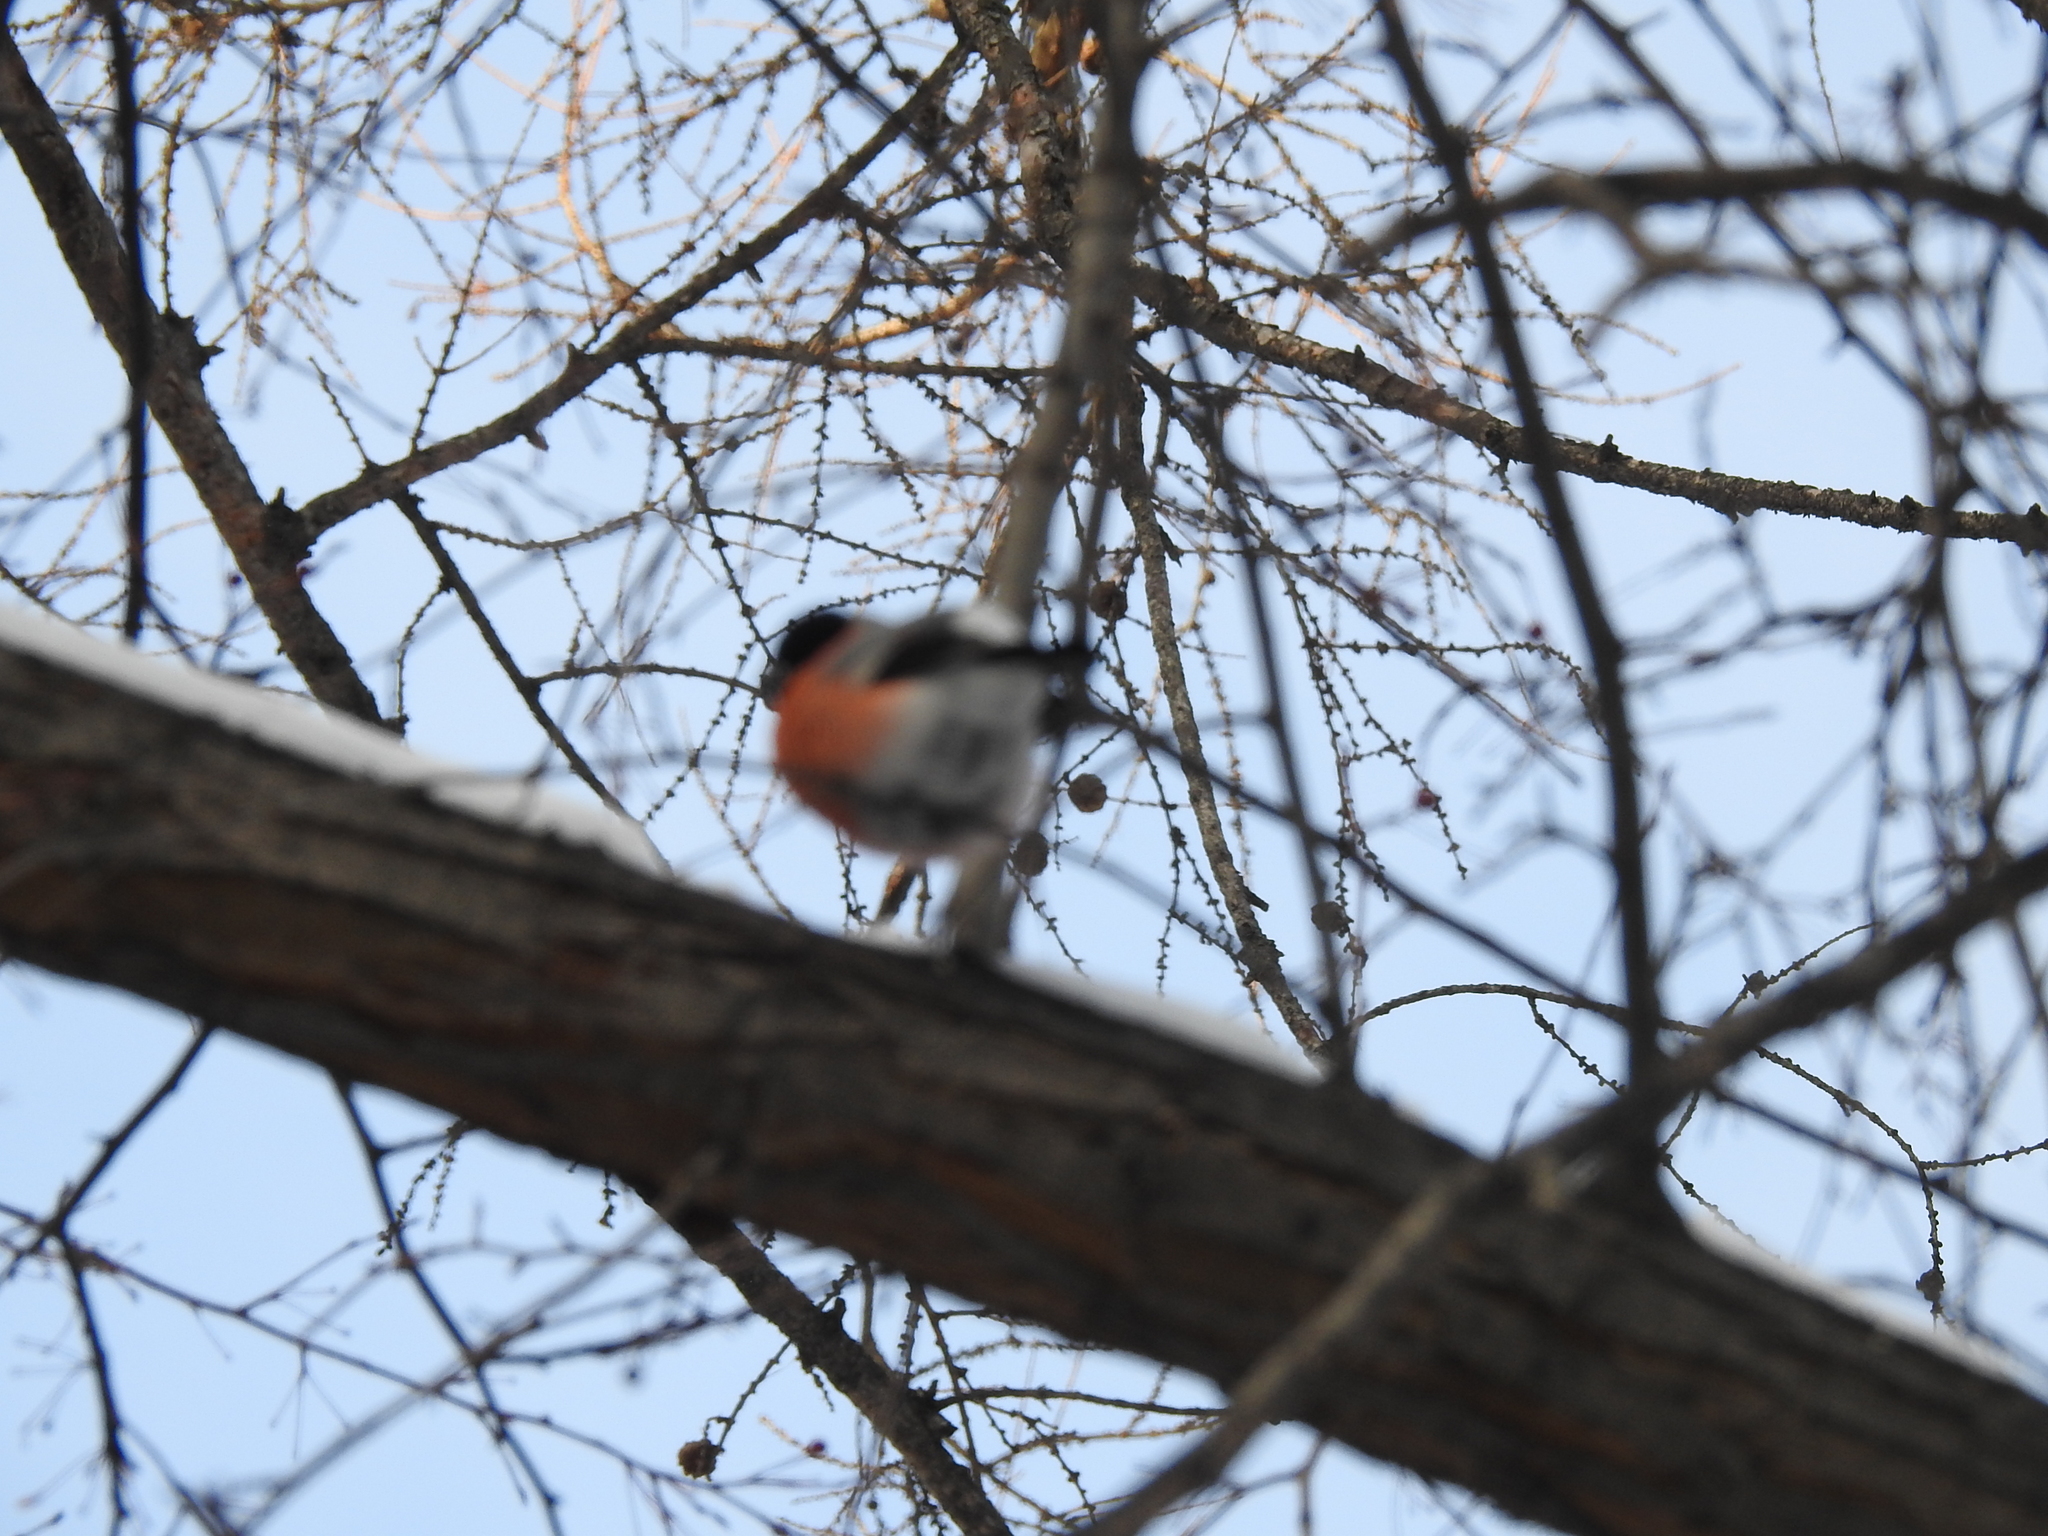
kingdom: Animalia
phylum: Chordata
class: Aves
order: Passeriformes
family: Fringillidae
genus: Pyrrhula
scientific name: Pyrrhula pyrrhula
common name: Eurasian bullfinch
